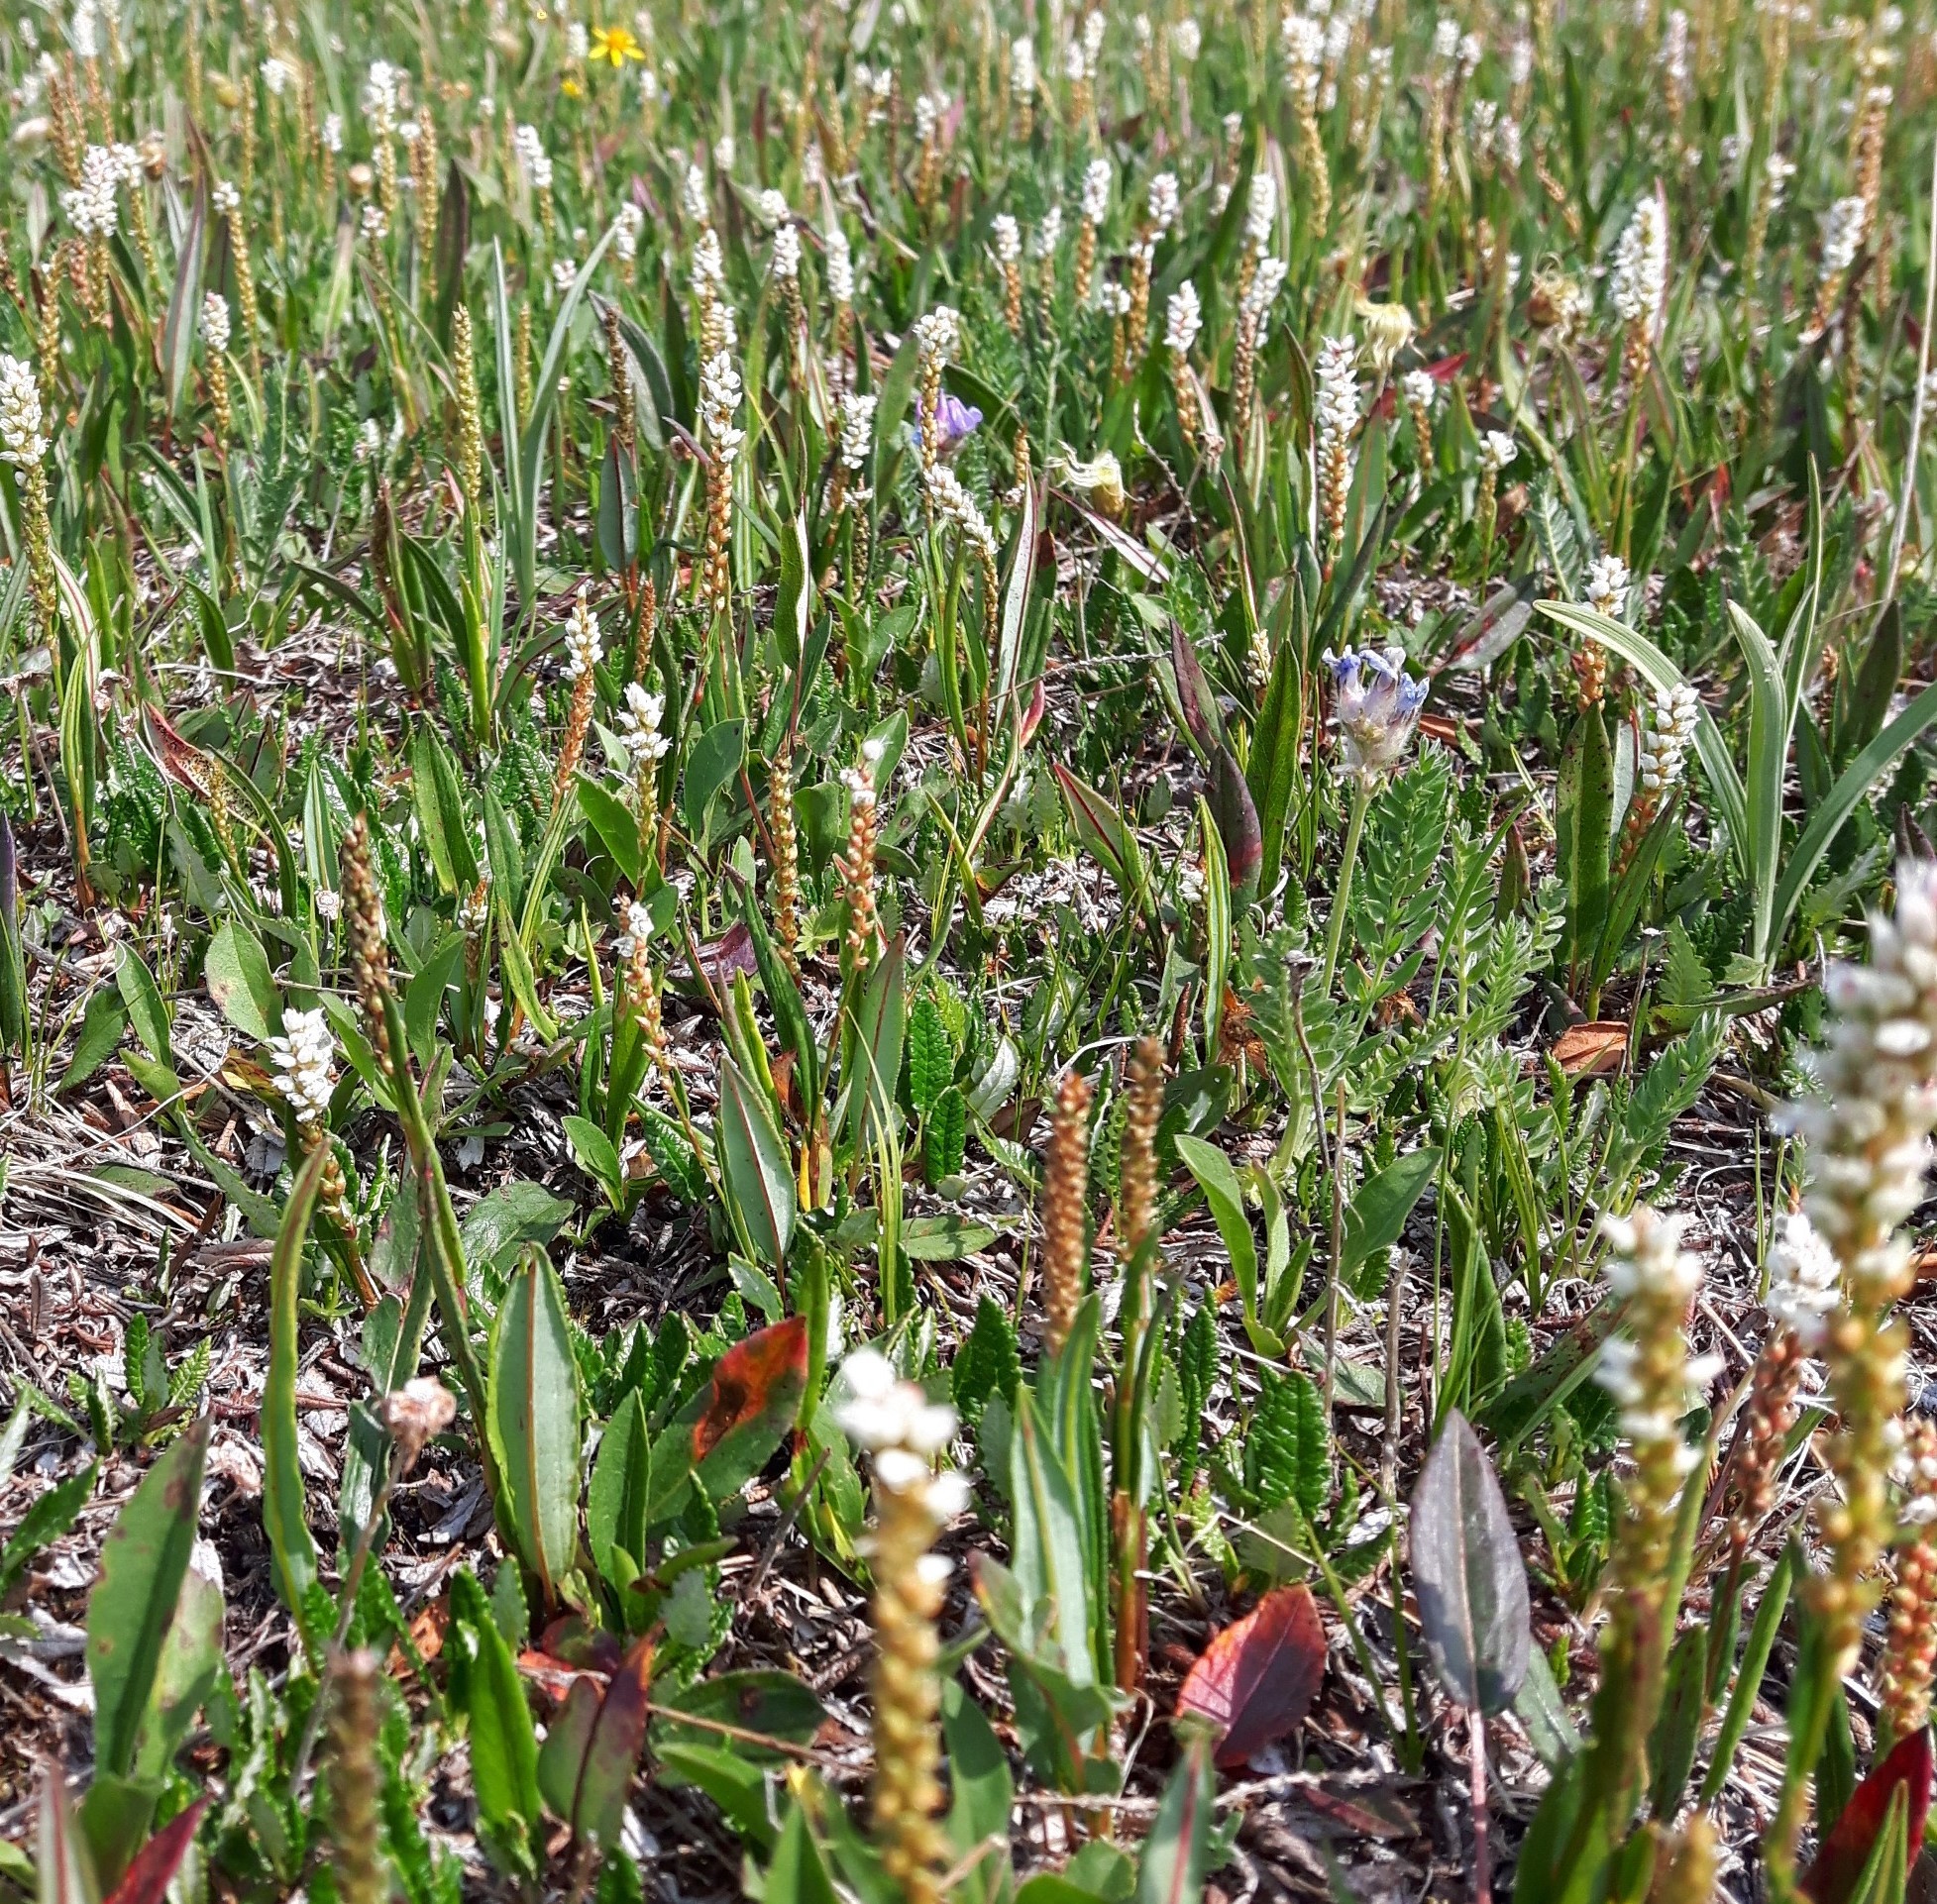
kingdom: Plantae
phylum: Tracheophyta
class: Magnoliopsida
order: Caryophyllales
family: Polygonaceae
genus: Bistorta
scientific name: Bistorta vivipara
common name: Alpine bistort
